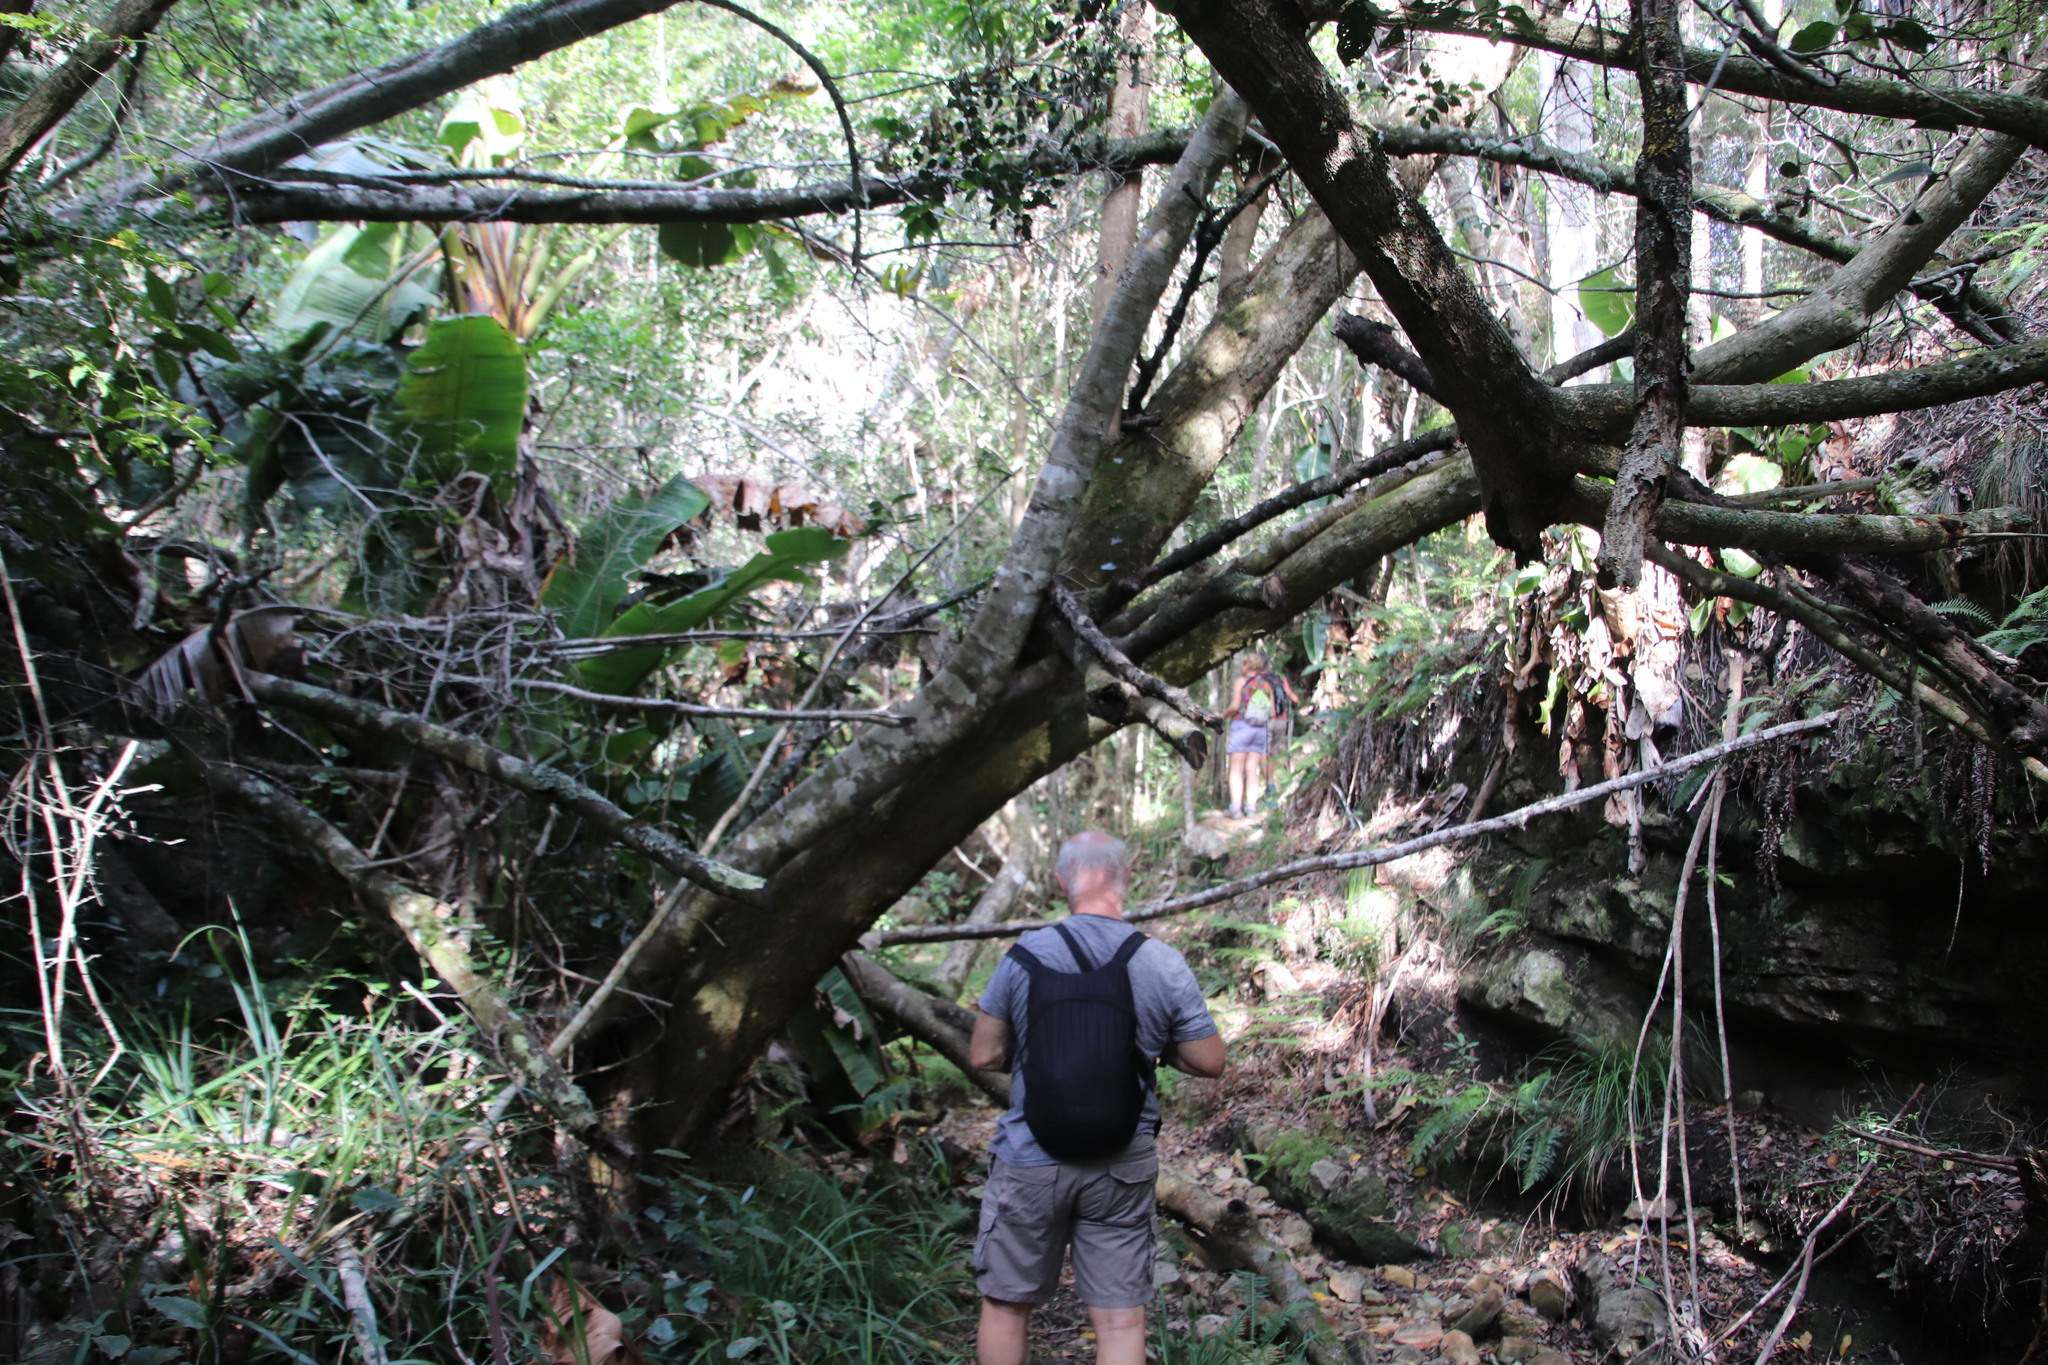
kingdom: Plantae
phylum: Tracheophyta
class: Liliopsida
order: Zingiberales
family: Strelitziaceae
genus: Strelitzia
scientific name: Strelitzia alba
